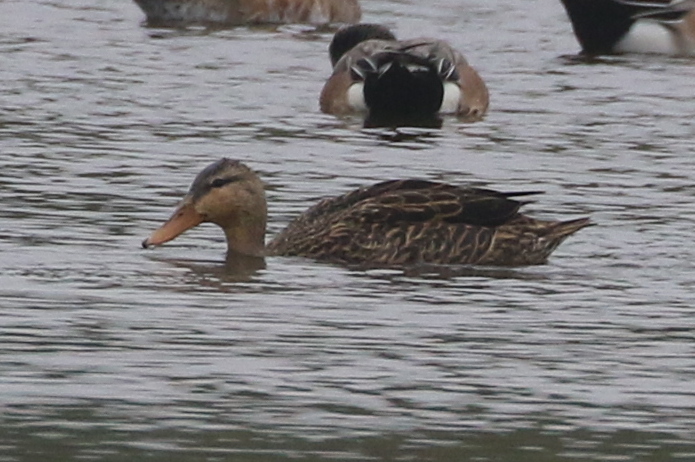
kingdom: Animalia
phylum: Chordata
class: Aves
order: Anseriformes
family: Anatidae
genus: Anas
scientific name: Anas fulvigula
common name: Mottled duck
